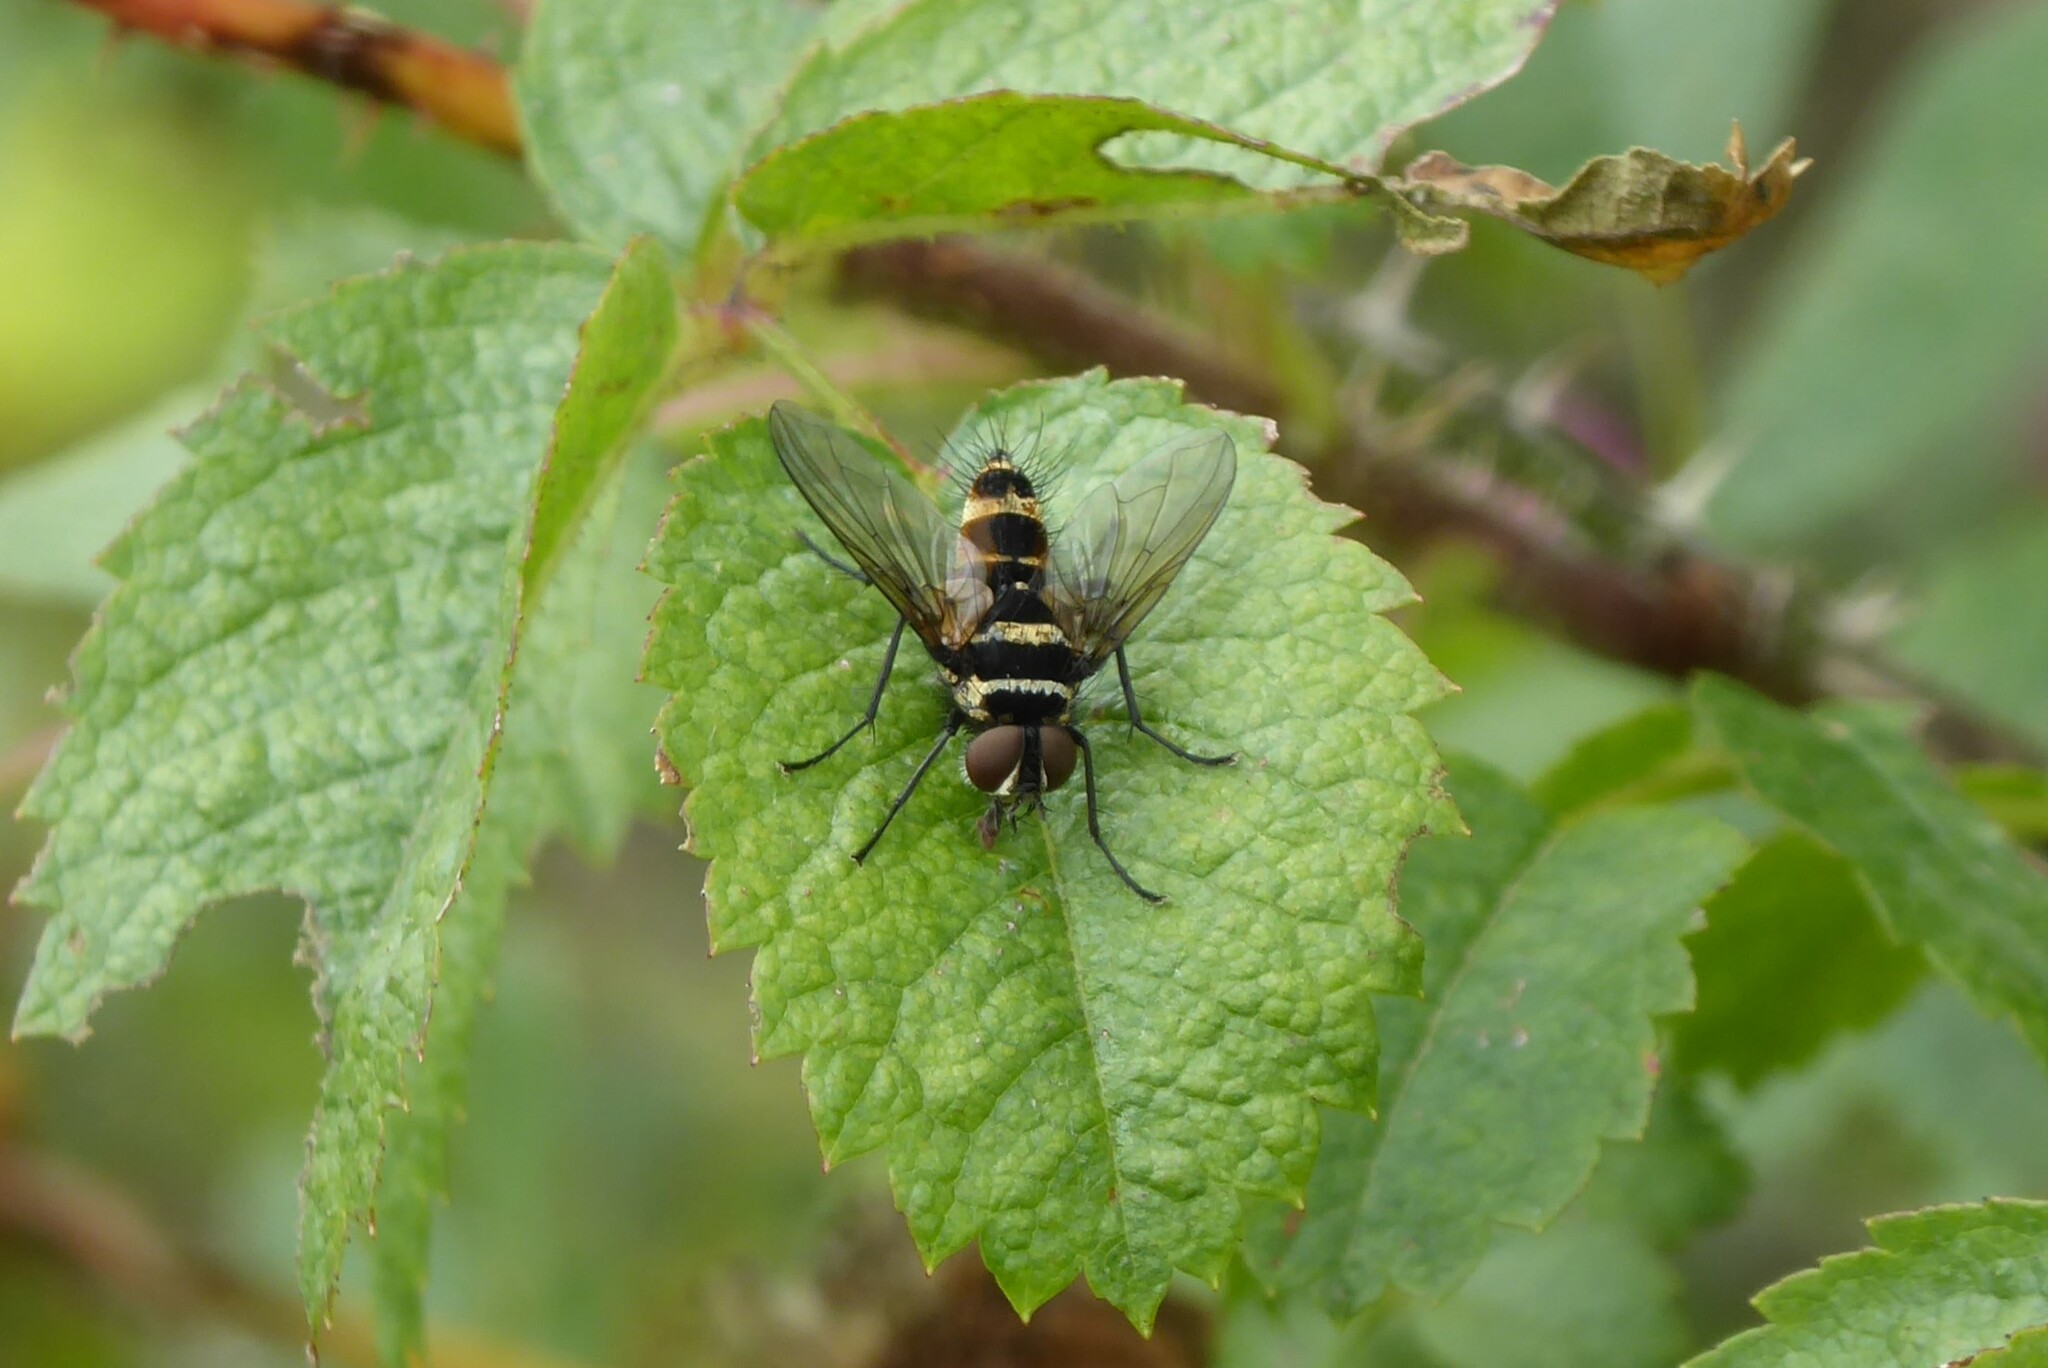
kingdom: Animalia
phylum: Arthropoda
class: Insecta
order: Diptera
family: Tachinidae
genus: Trigonospila
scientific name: Trigonospila brevifacies
